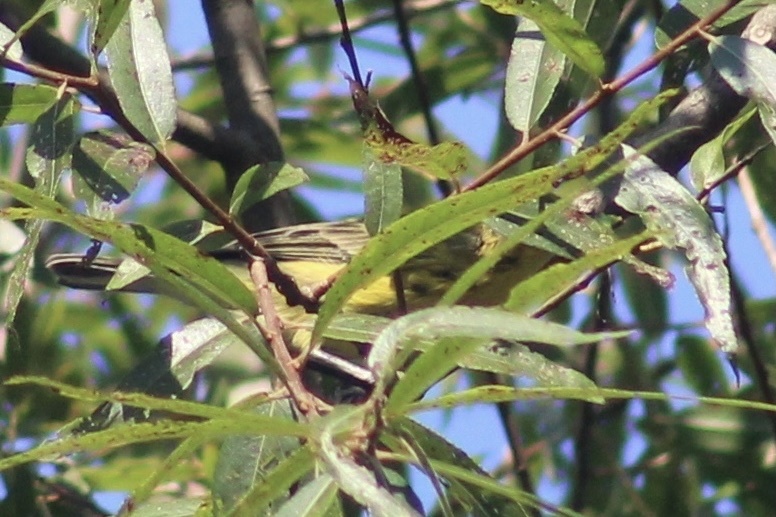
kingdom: Animalia
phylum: Chordata
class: Aves
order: Passeriformes
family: Parulidae
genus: Setophaga
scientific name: Setophaga discolor
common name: Prairie warbler
